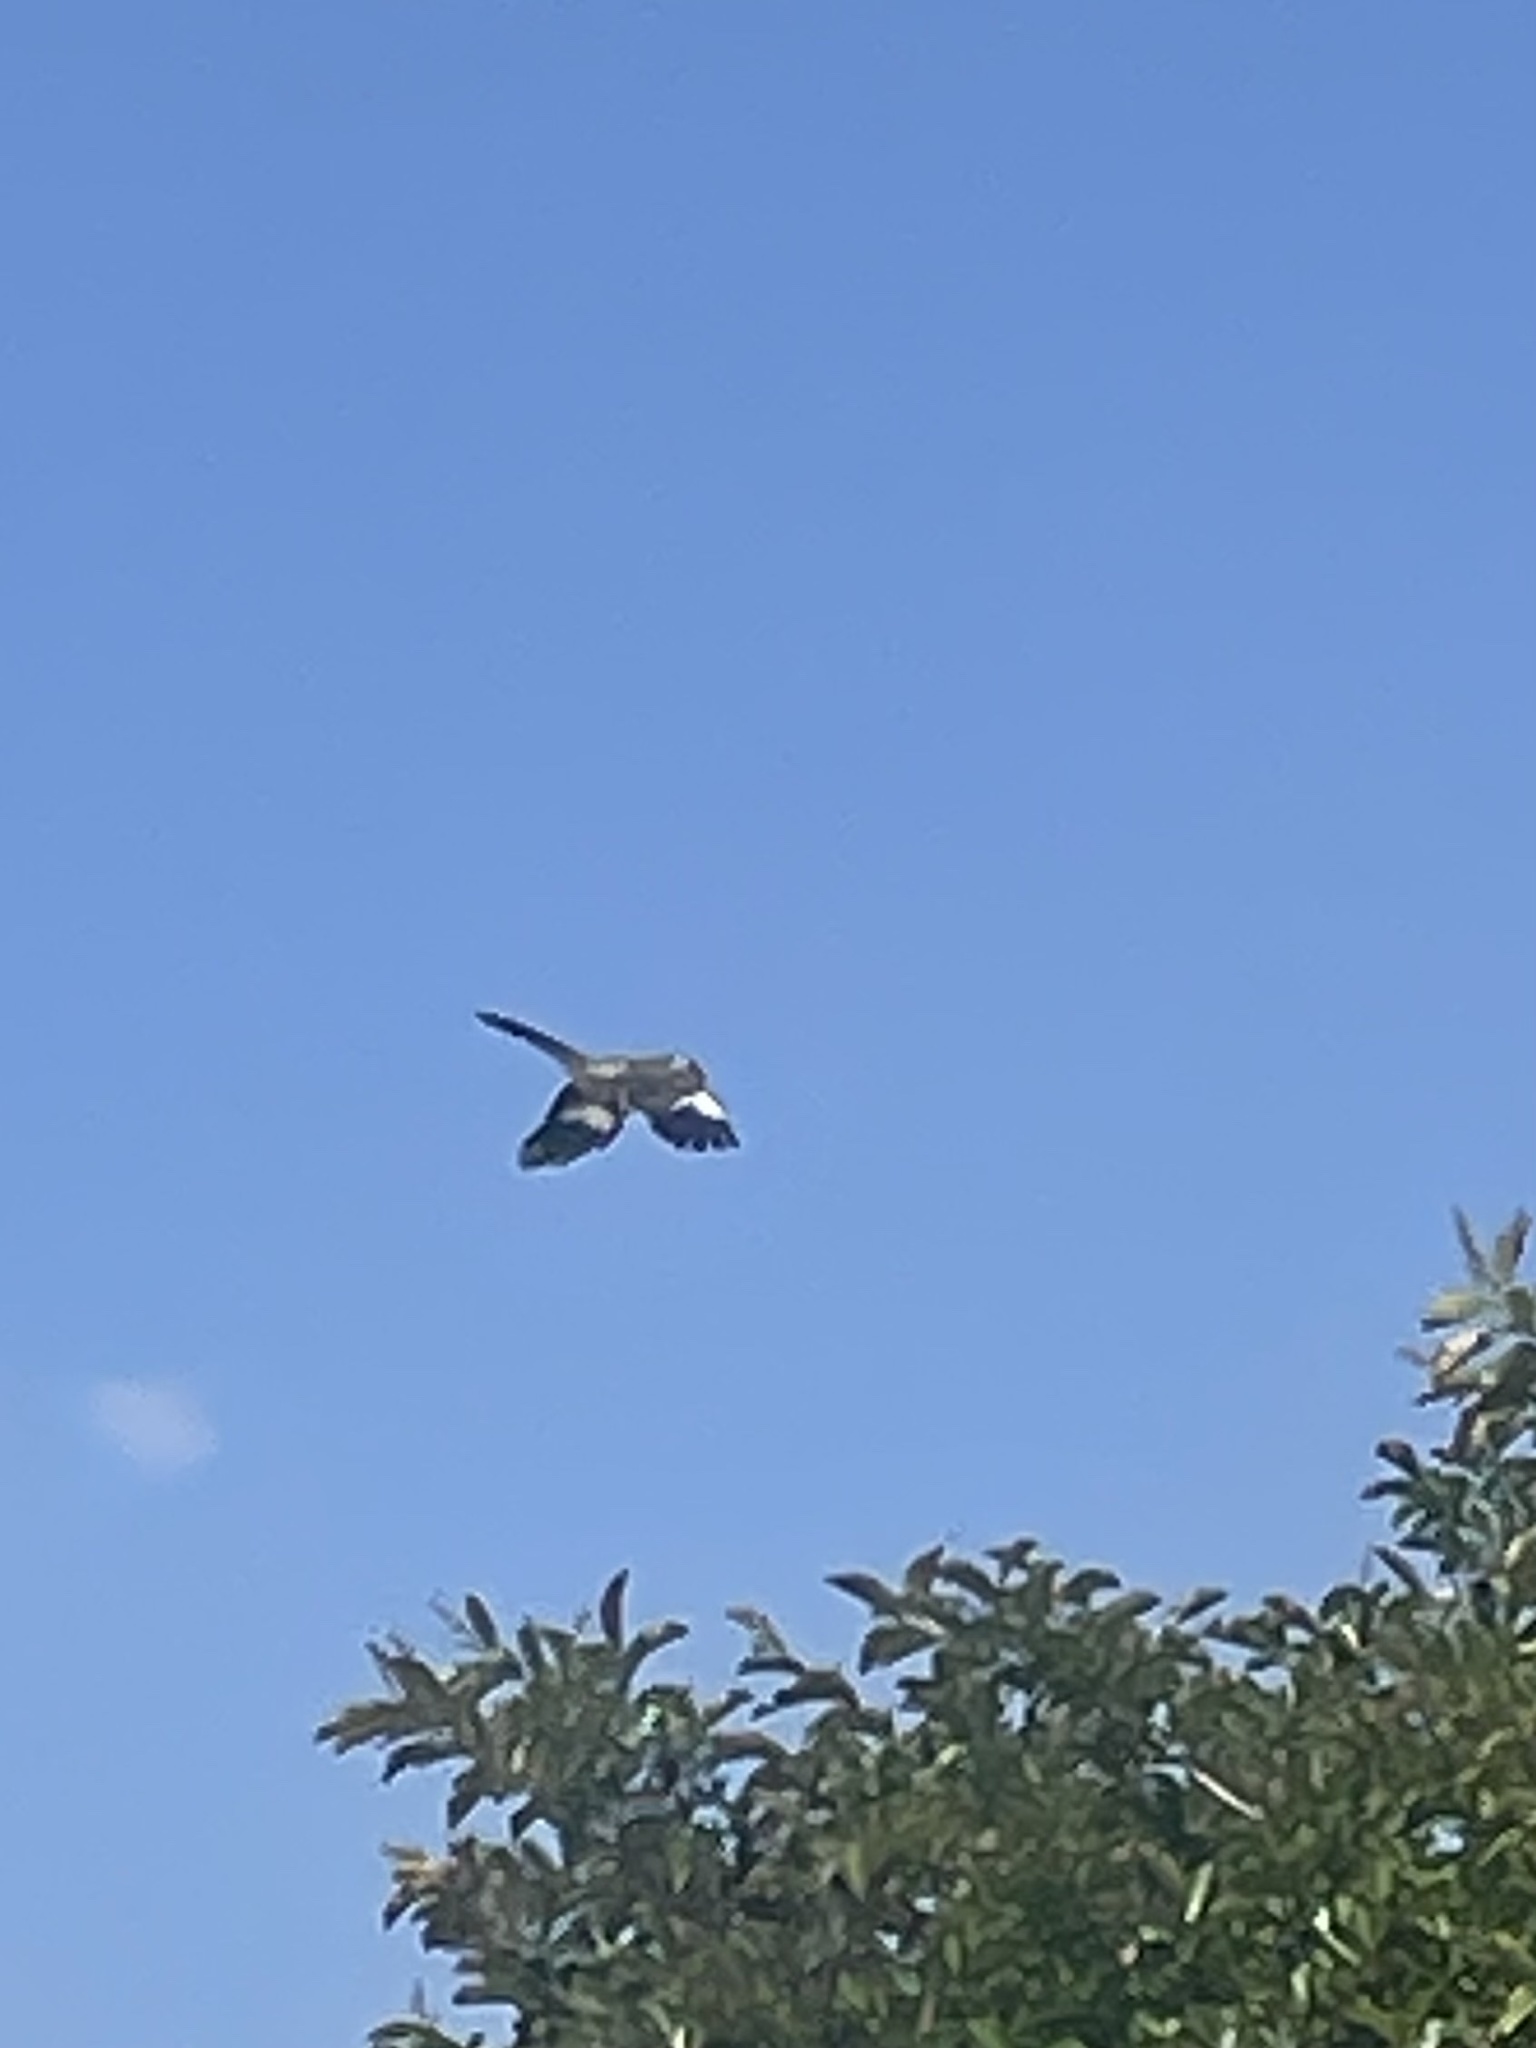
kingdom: Animalia
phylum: Chordata
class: Aves
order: Passeriformes
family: Mimidae
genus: Mimus
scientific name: Mimus polyglottos
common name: Northern mockingbird
